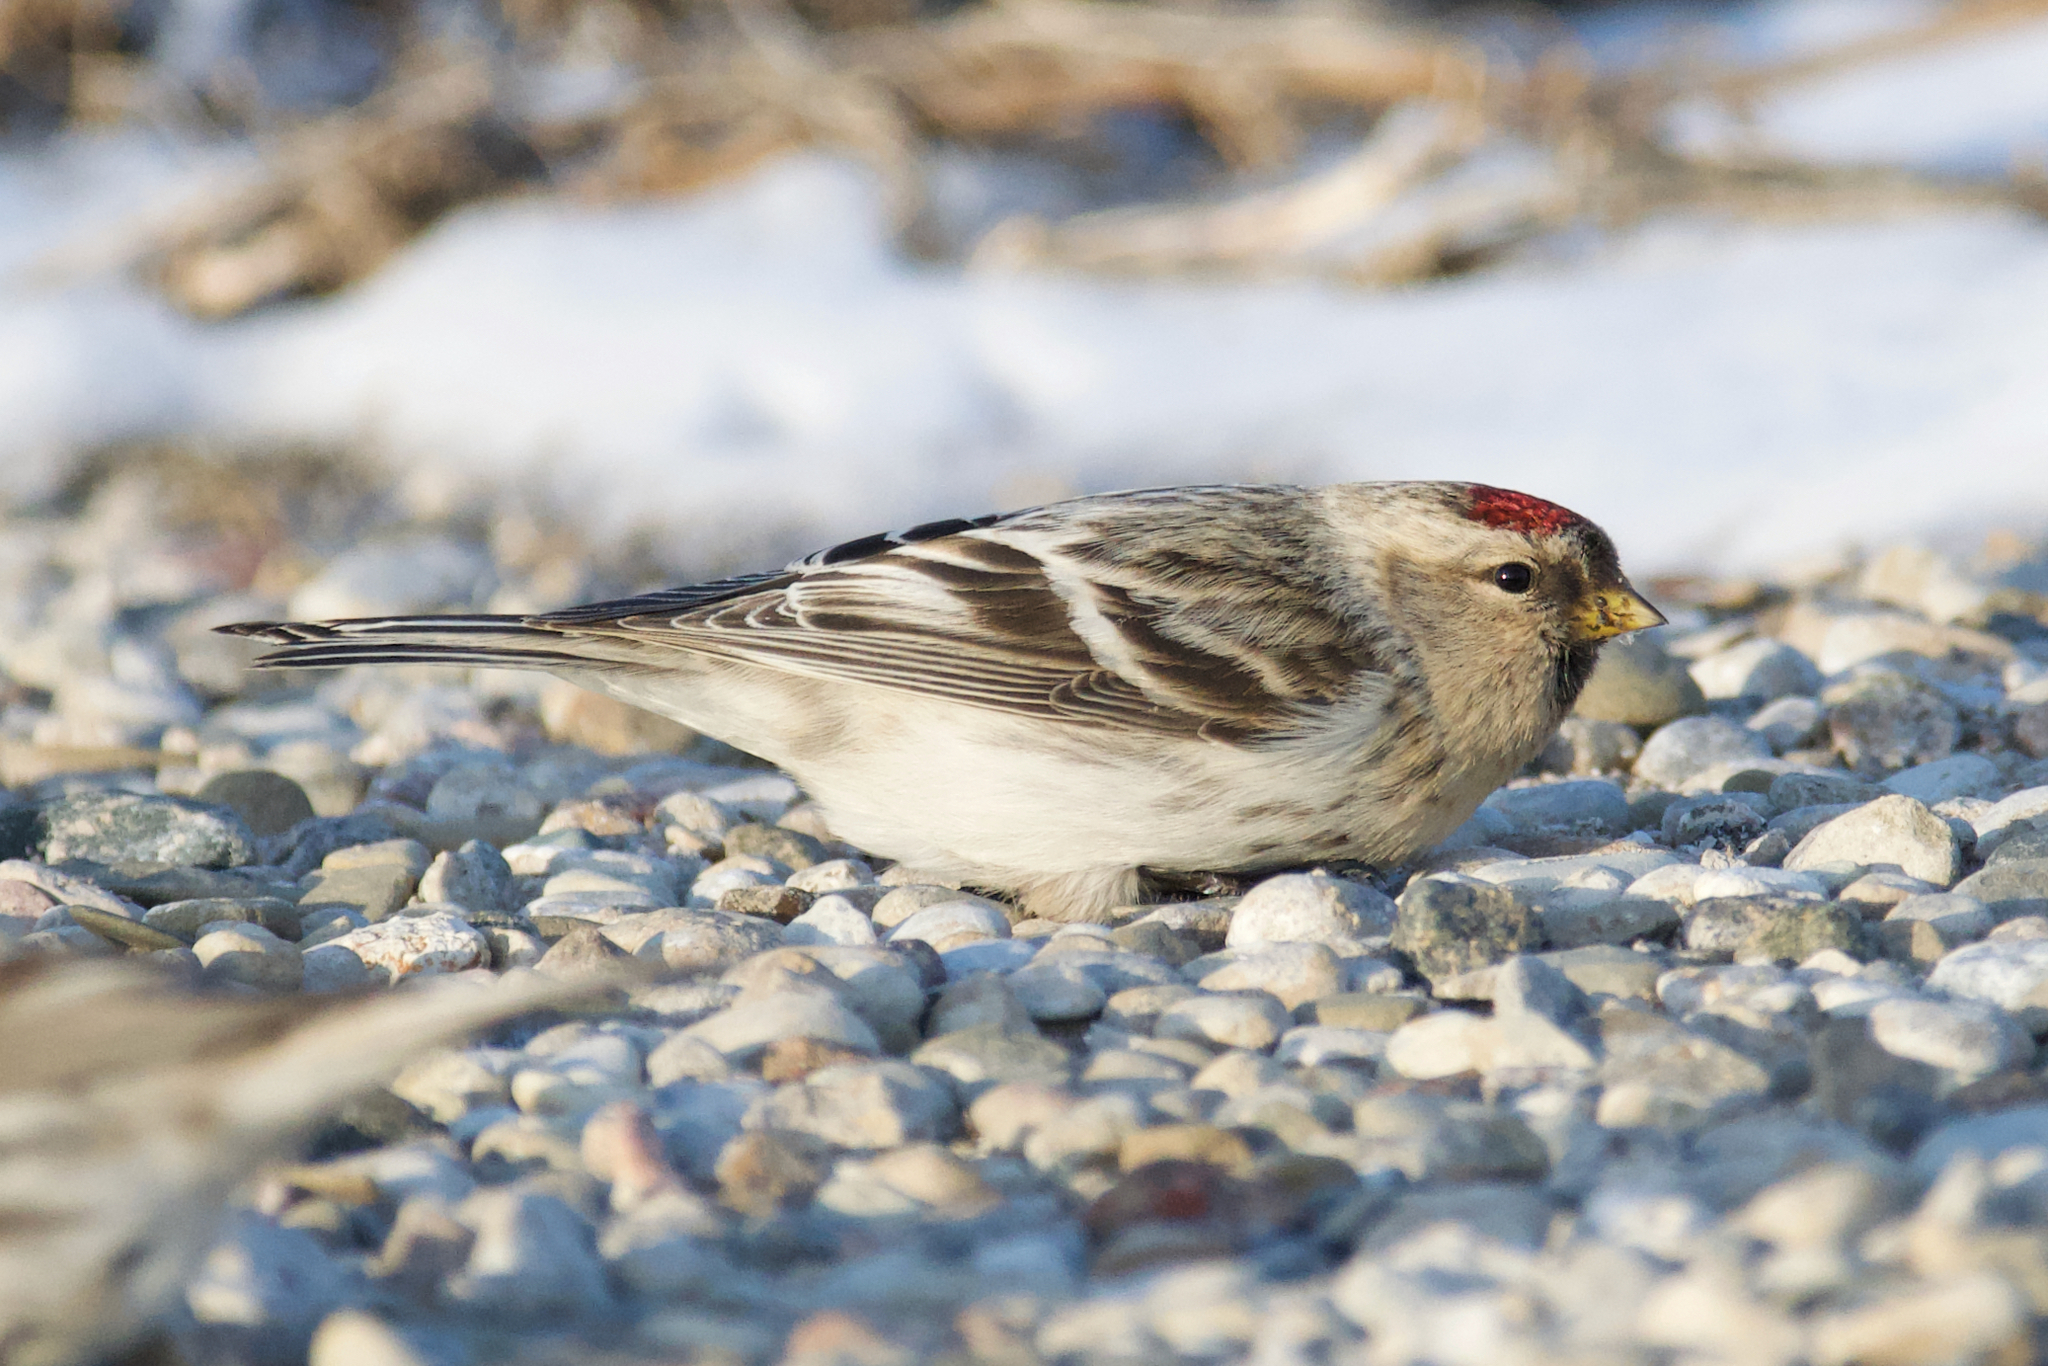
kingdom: Animalia
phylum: Chordata
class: Aves
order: Passeriformes
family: Fringillidae
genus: Acanthis
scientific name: Acanthis hornemanni
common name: Arctic redpoll
